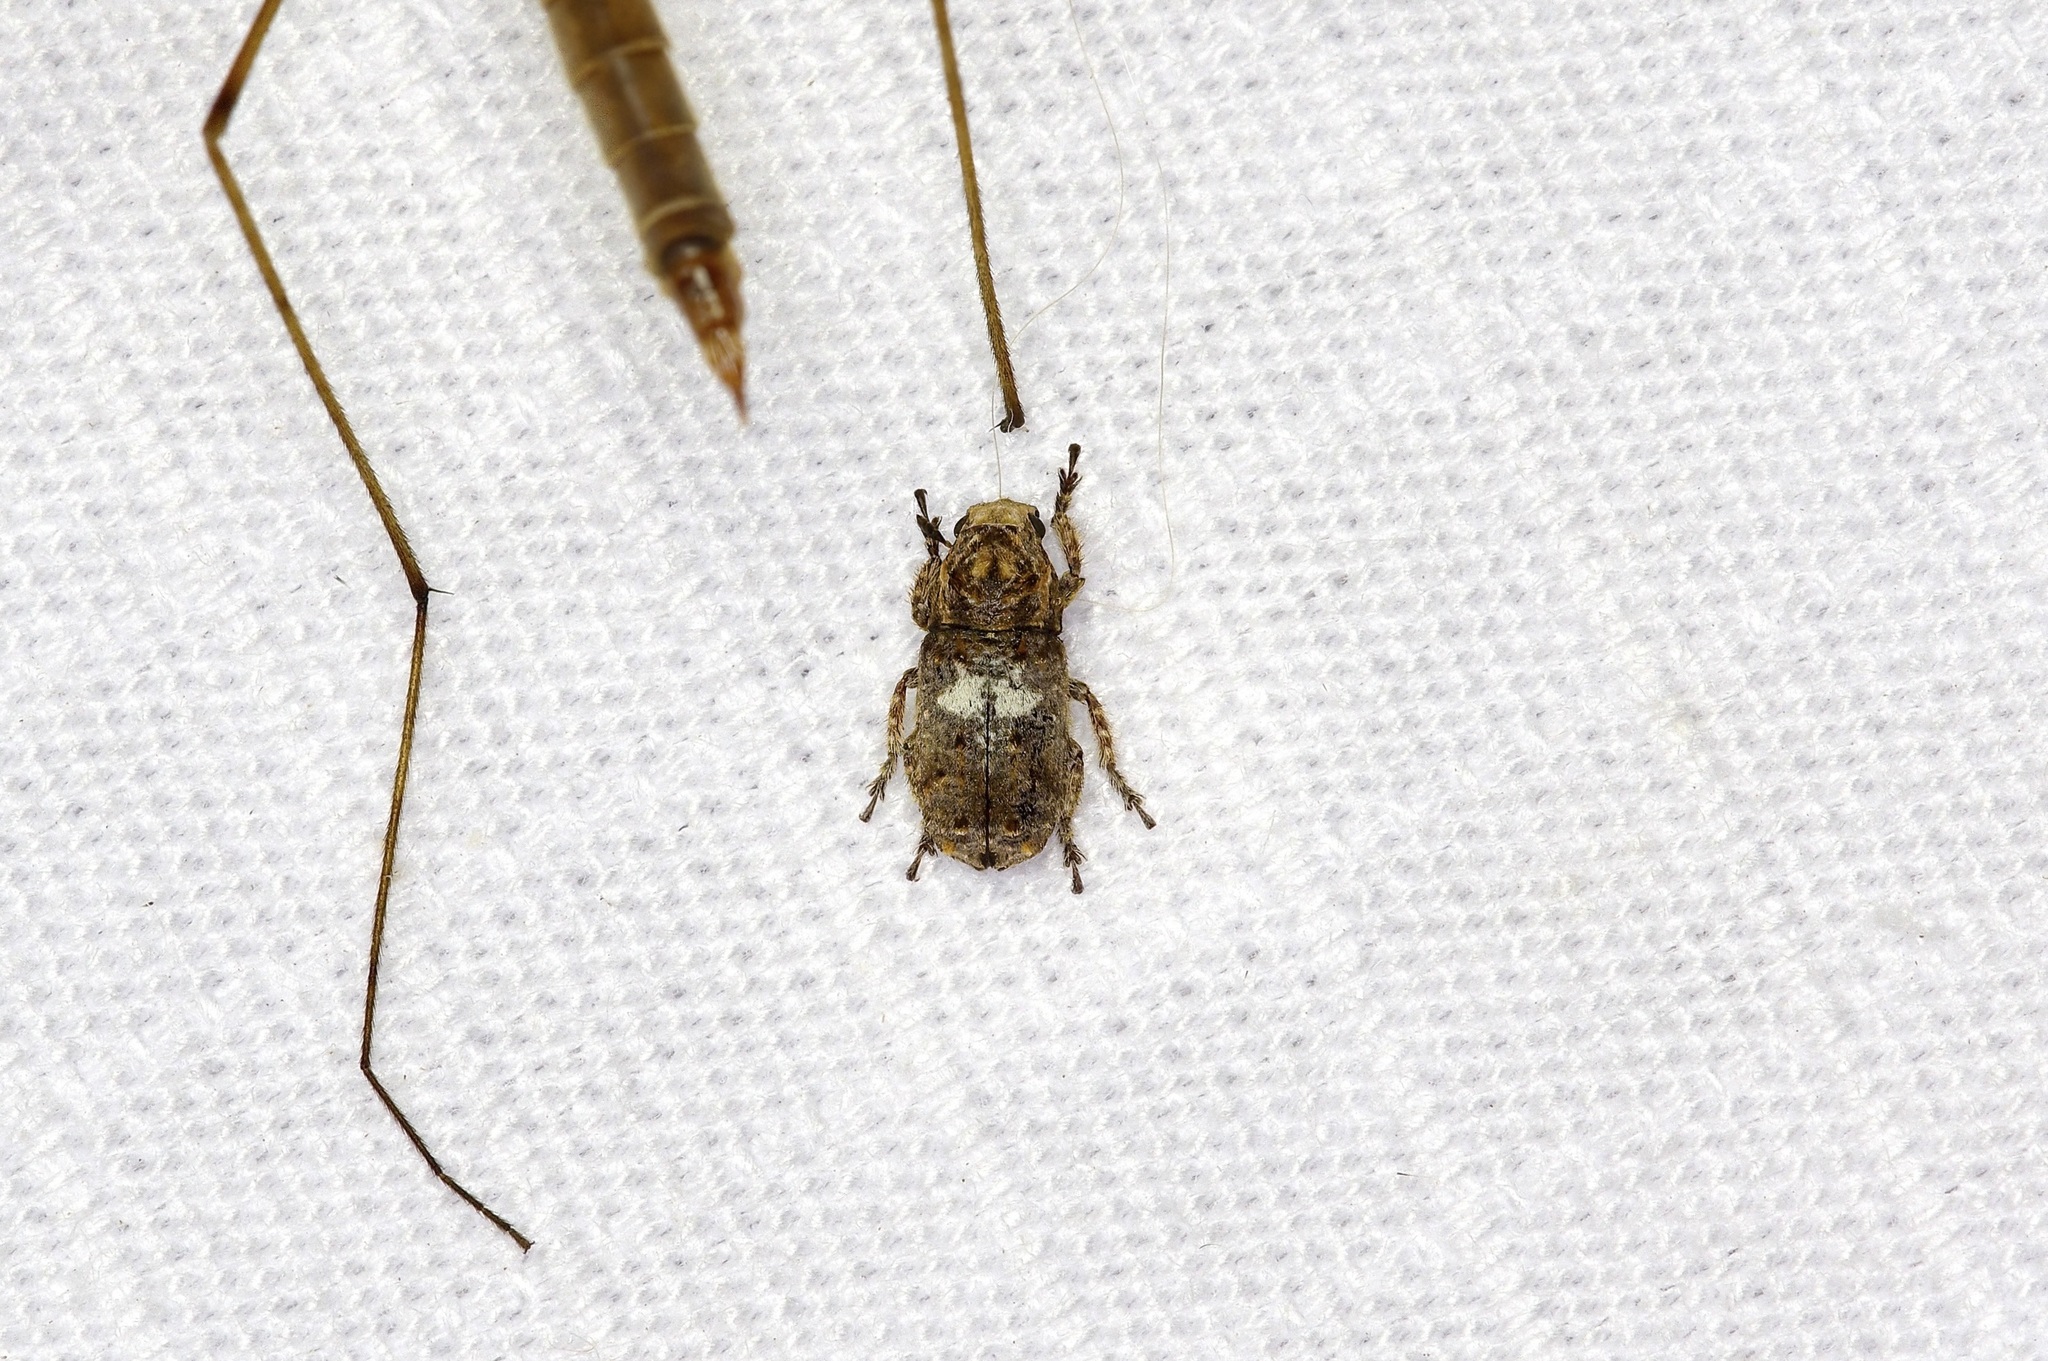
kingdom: Animalia
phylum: Arthropoda
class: Insecta
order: Coleoptera
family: Anthribidae
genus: Toxonotus
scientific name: Toxonotus cornutus
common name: Fungus weevil
